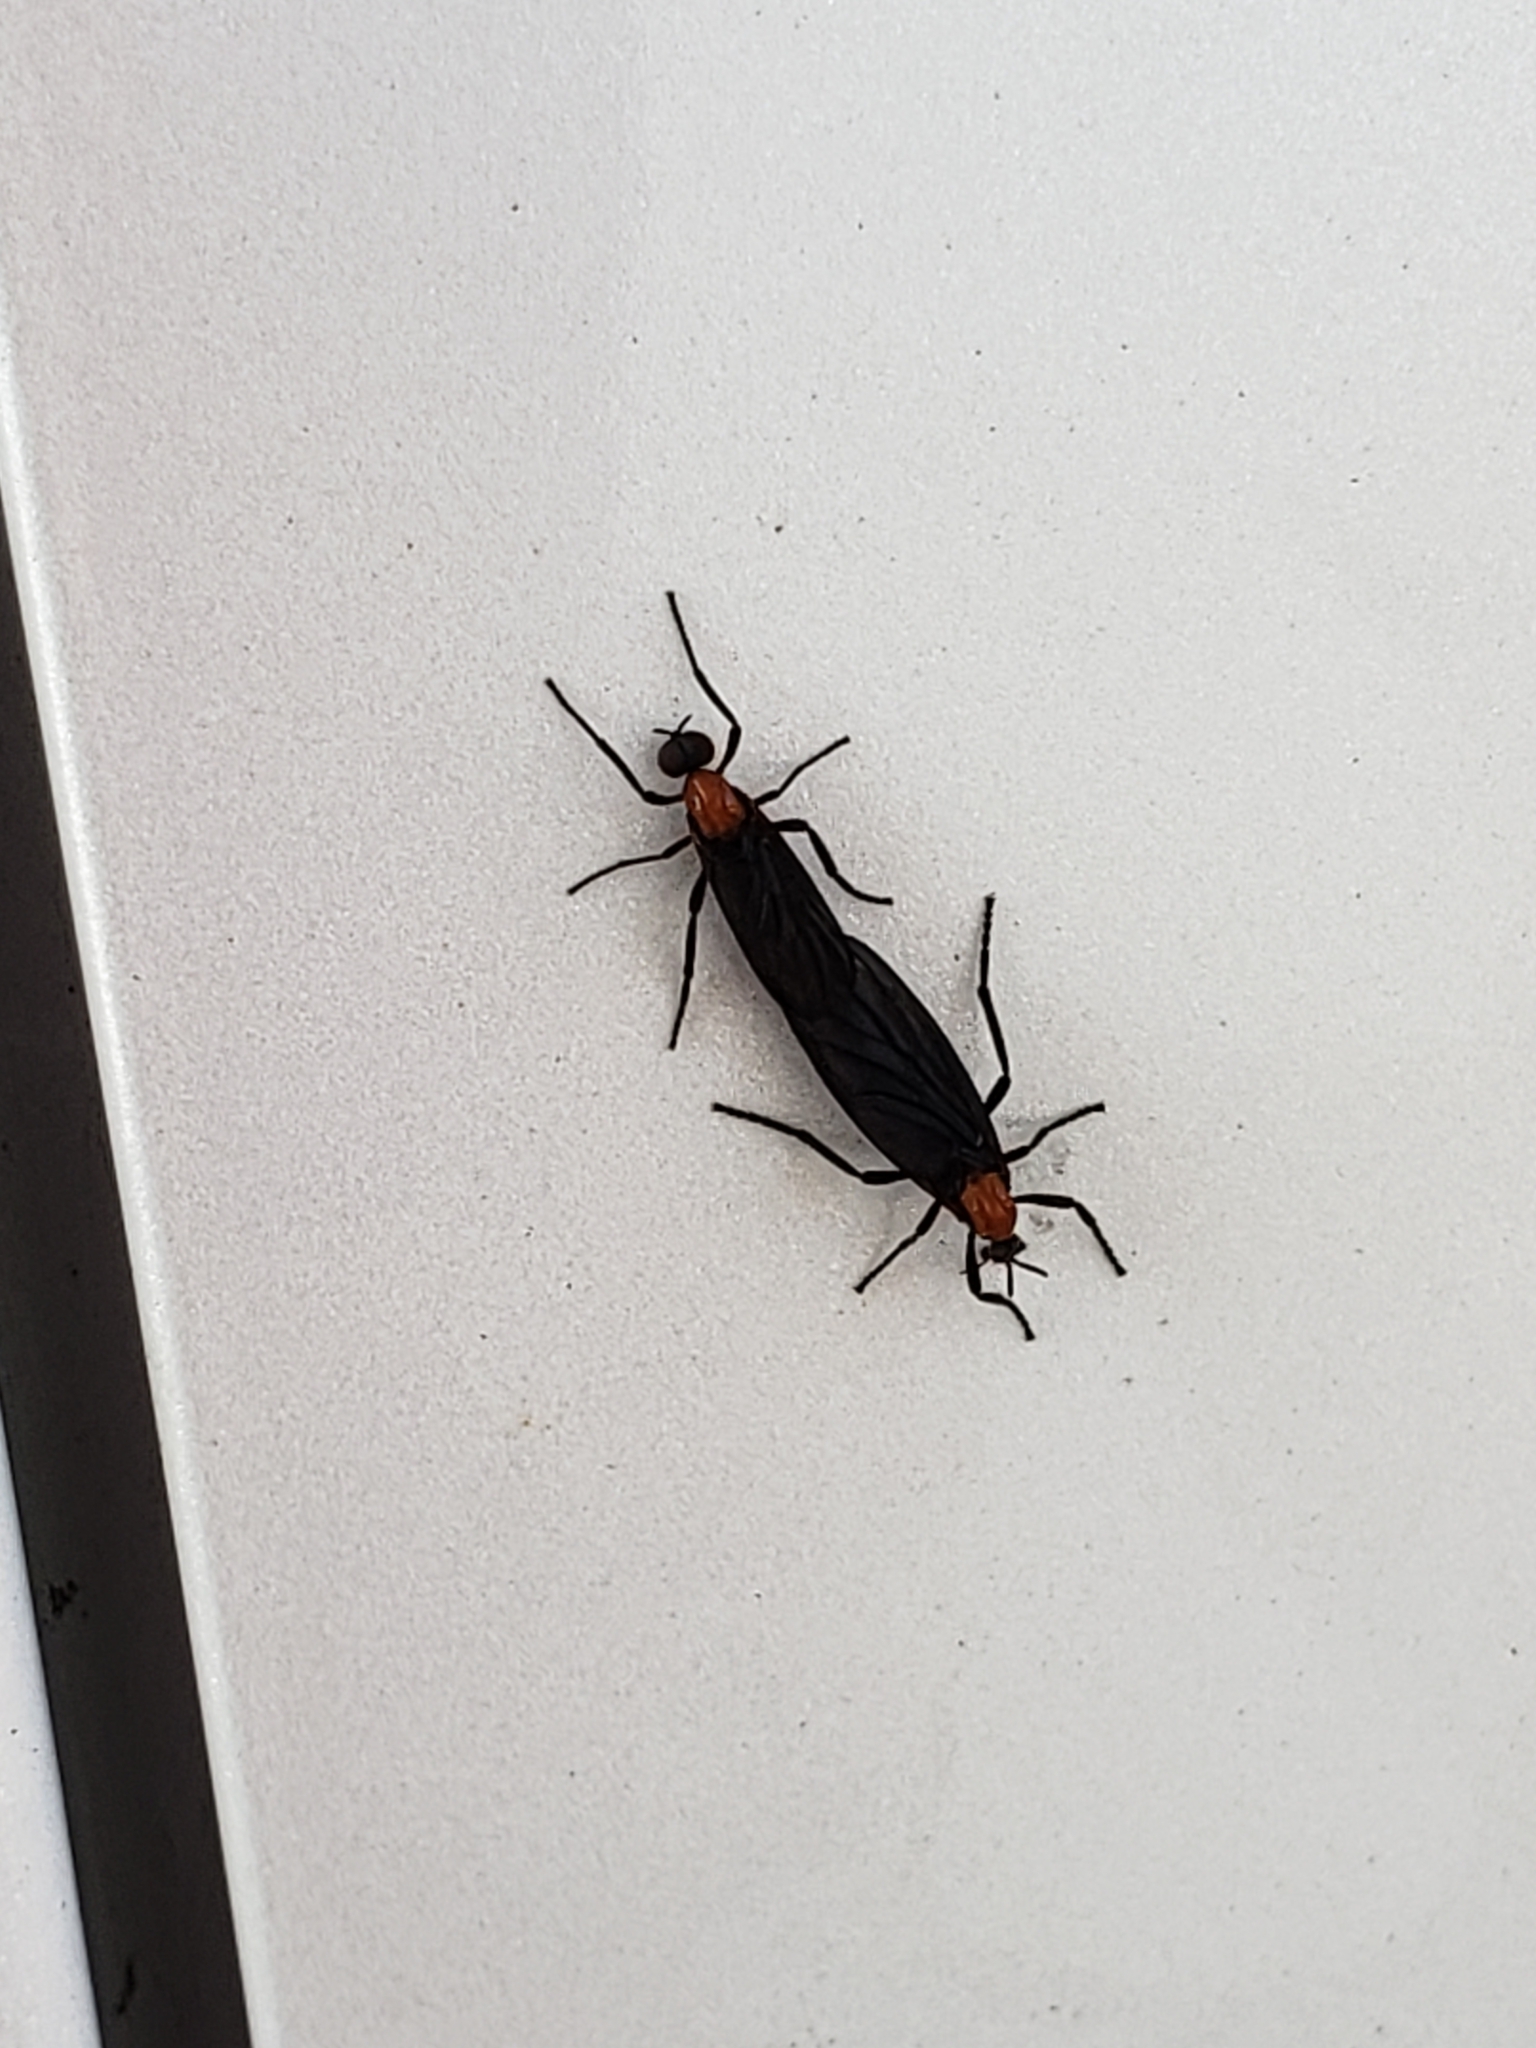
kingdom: Animalia
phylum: Arthropoda
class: Insecta
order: Diptera
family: Bibionidae
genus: Plecia
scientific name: Plecia nearctica
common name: March fly
